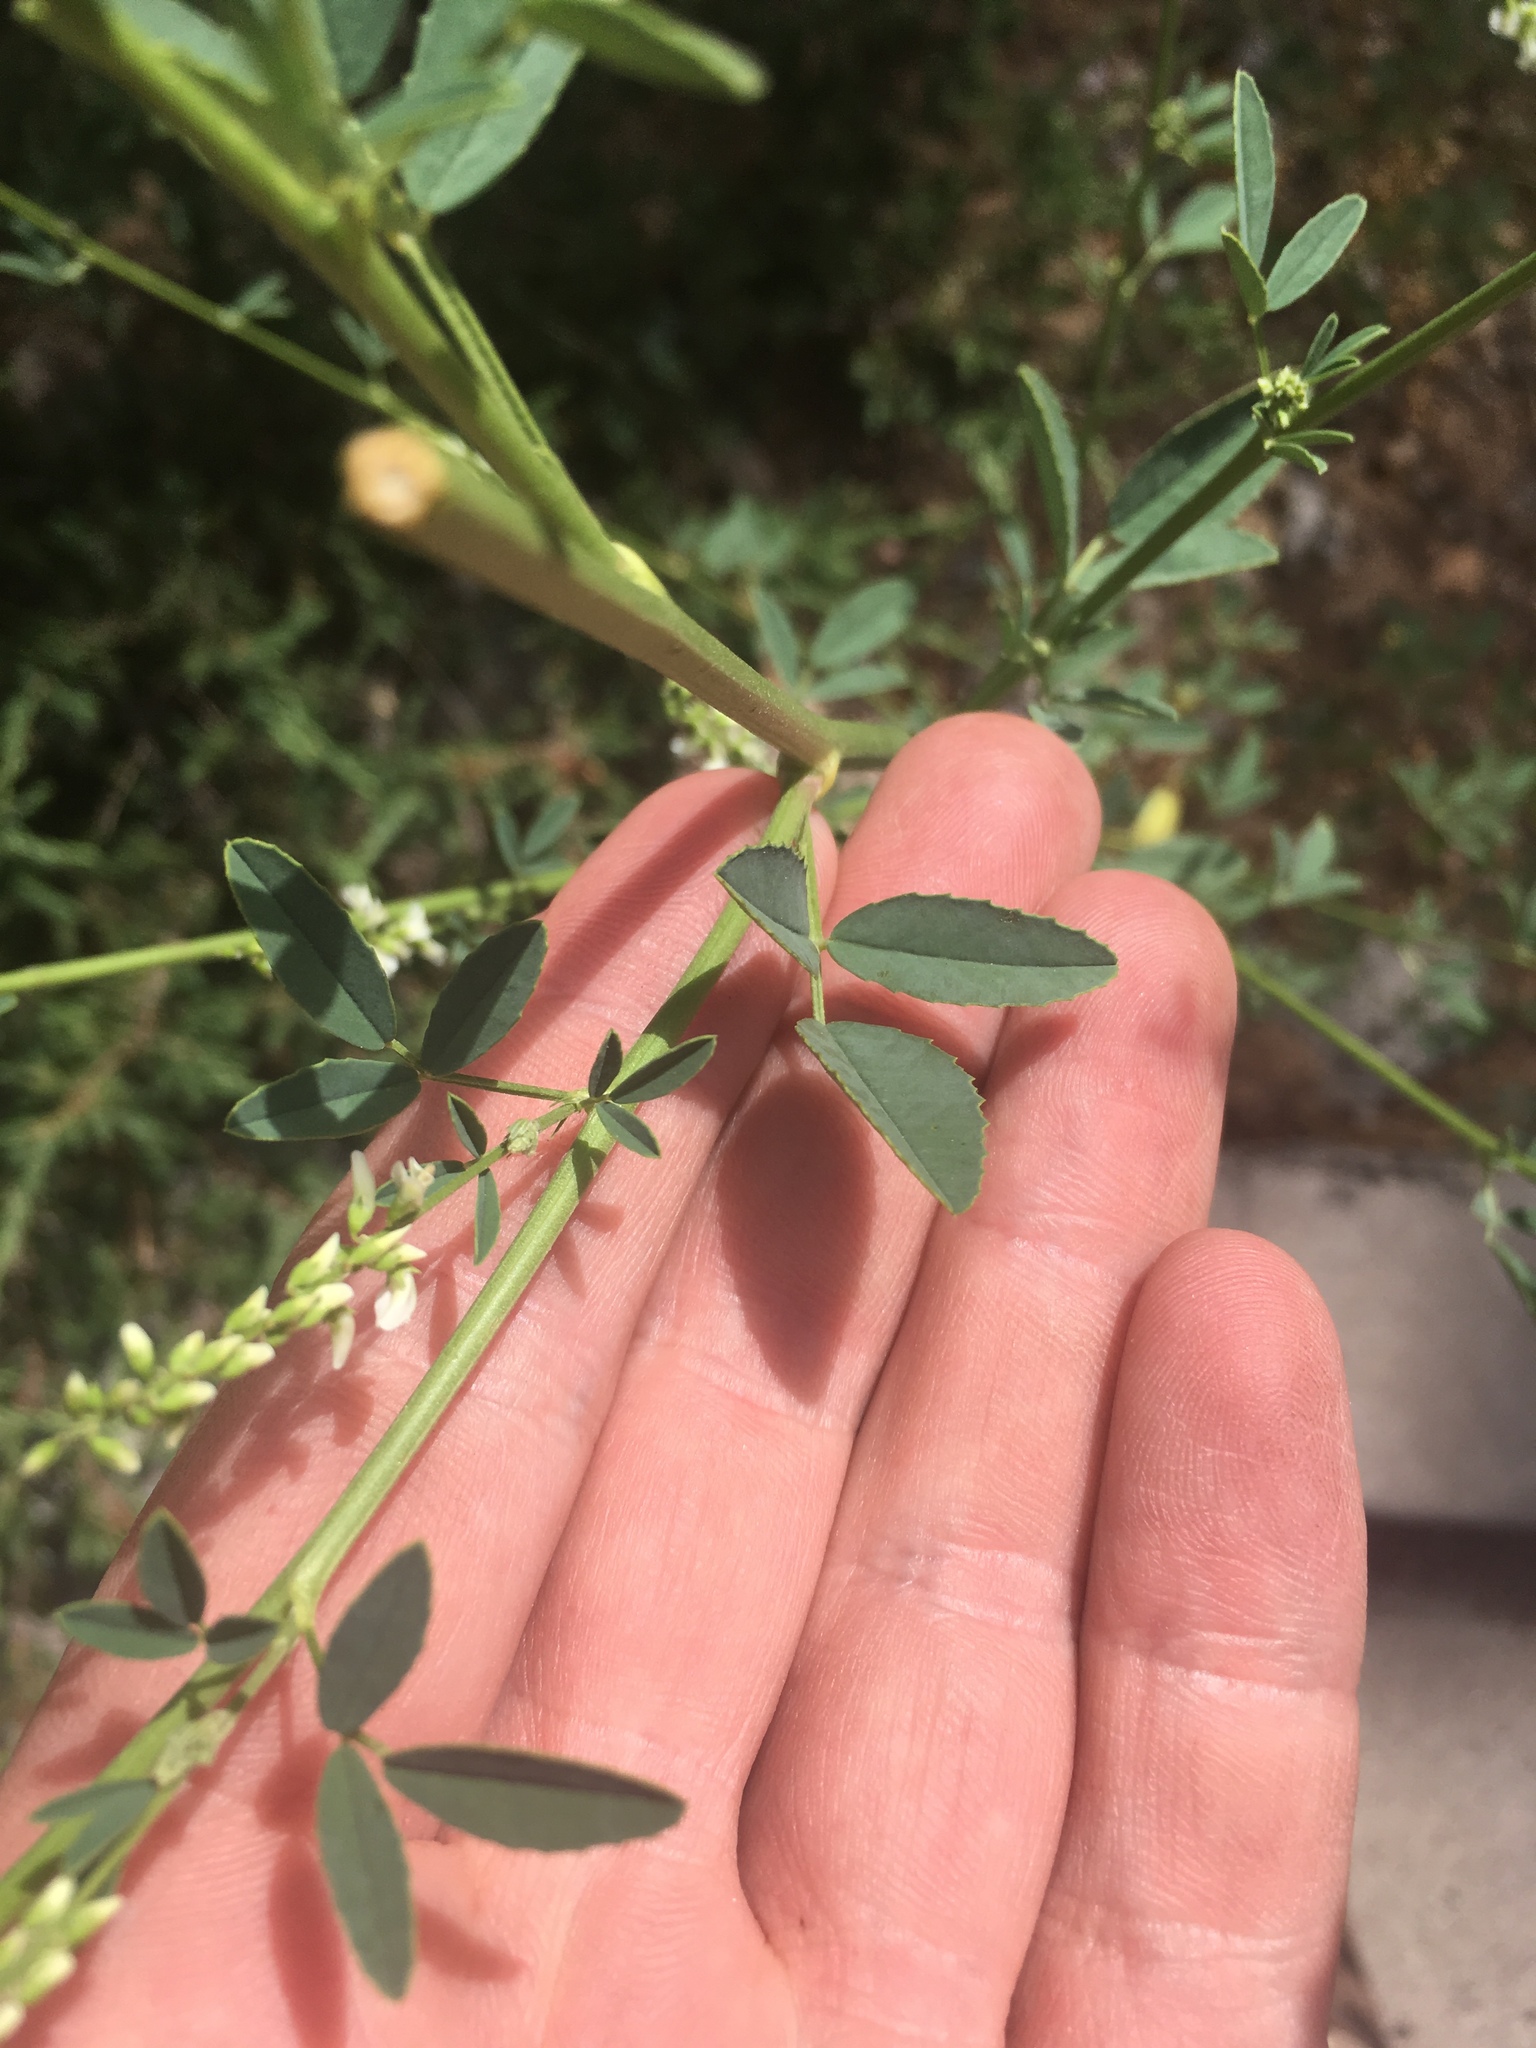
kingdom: Plantae
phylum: Tracheophyta
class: Magnoliopsida
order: Fabales
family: Fabaceae
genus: Melilotus
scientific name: Melilotus albus
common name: White melilot
